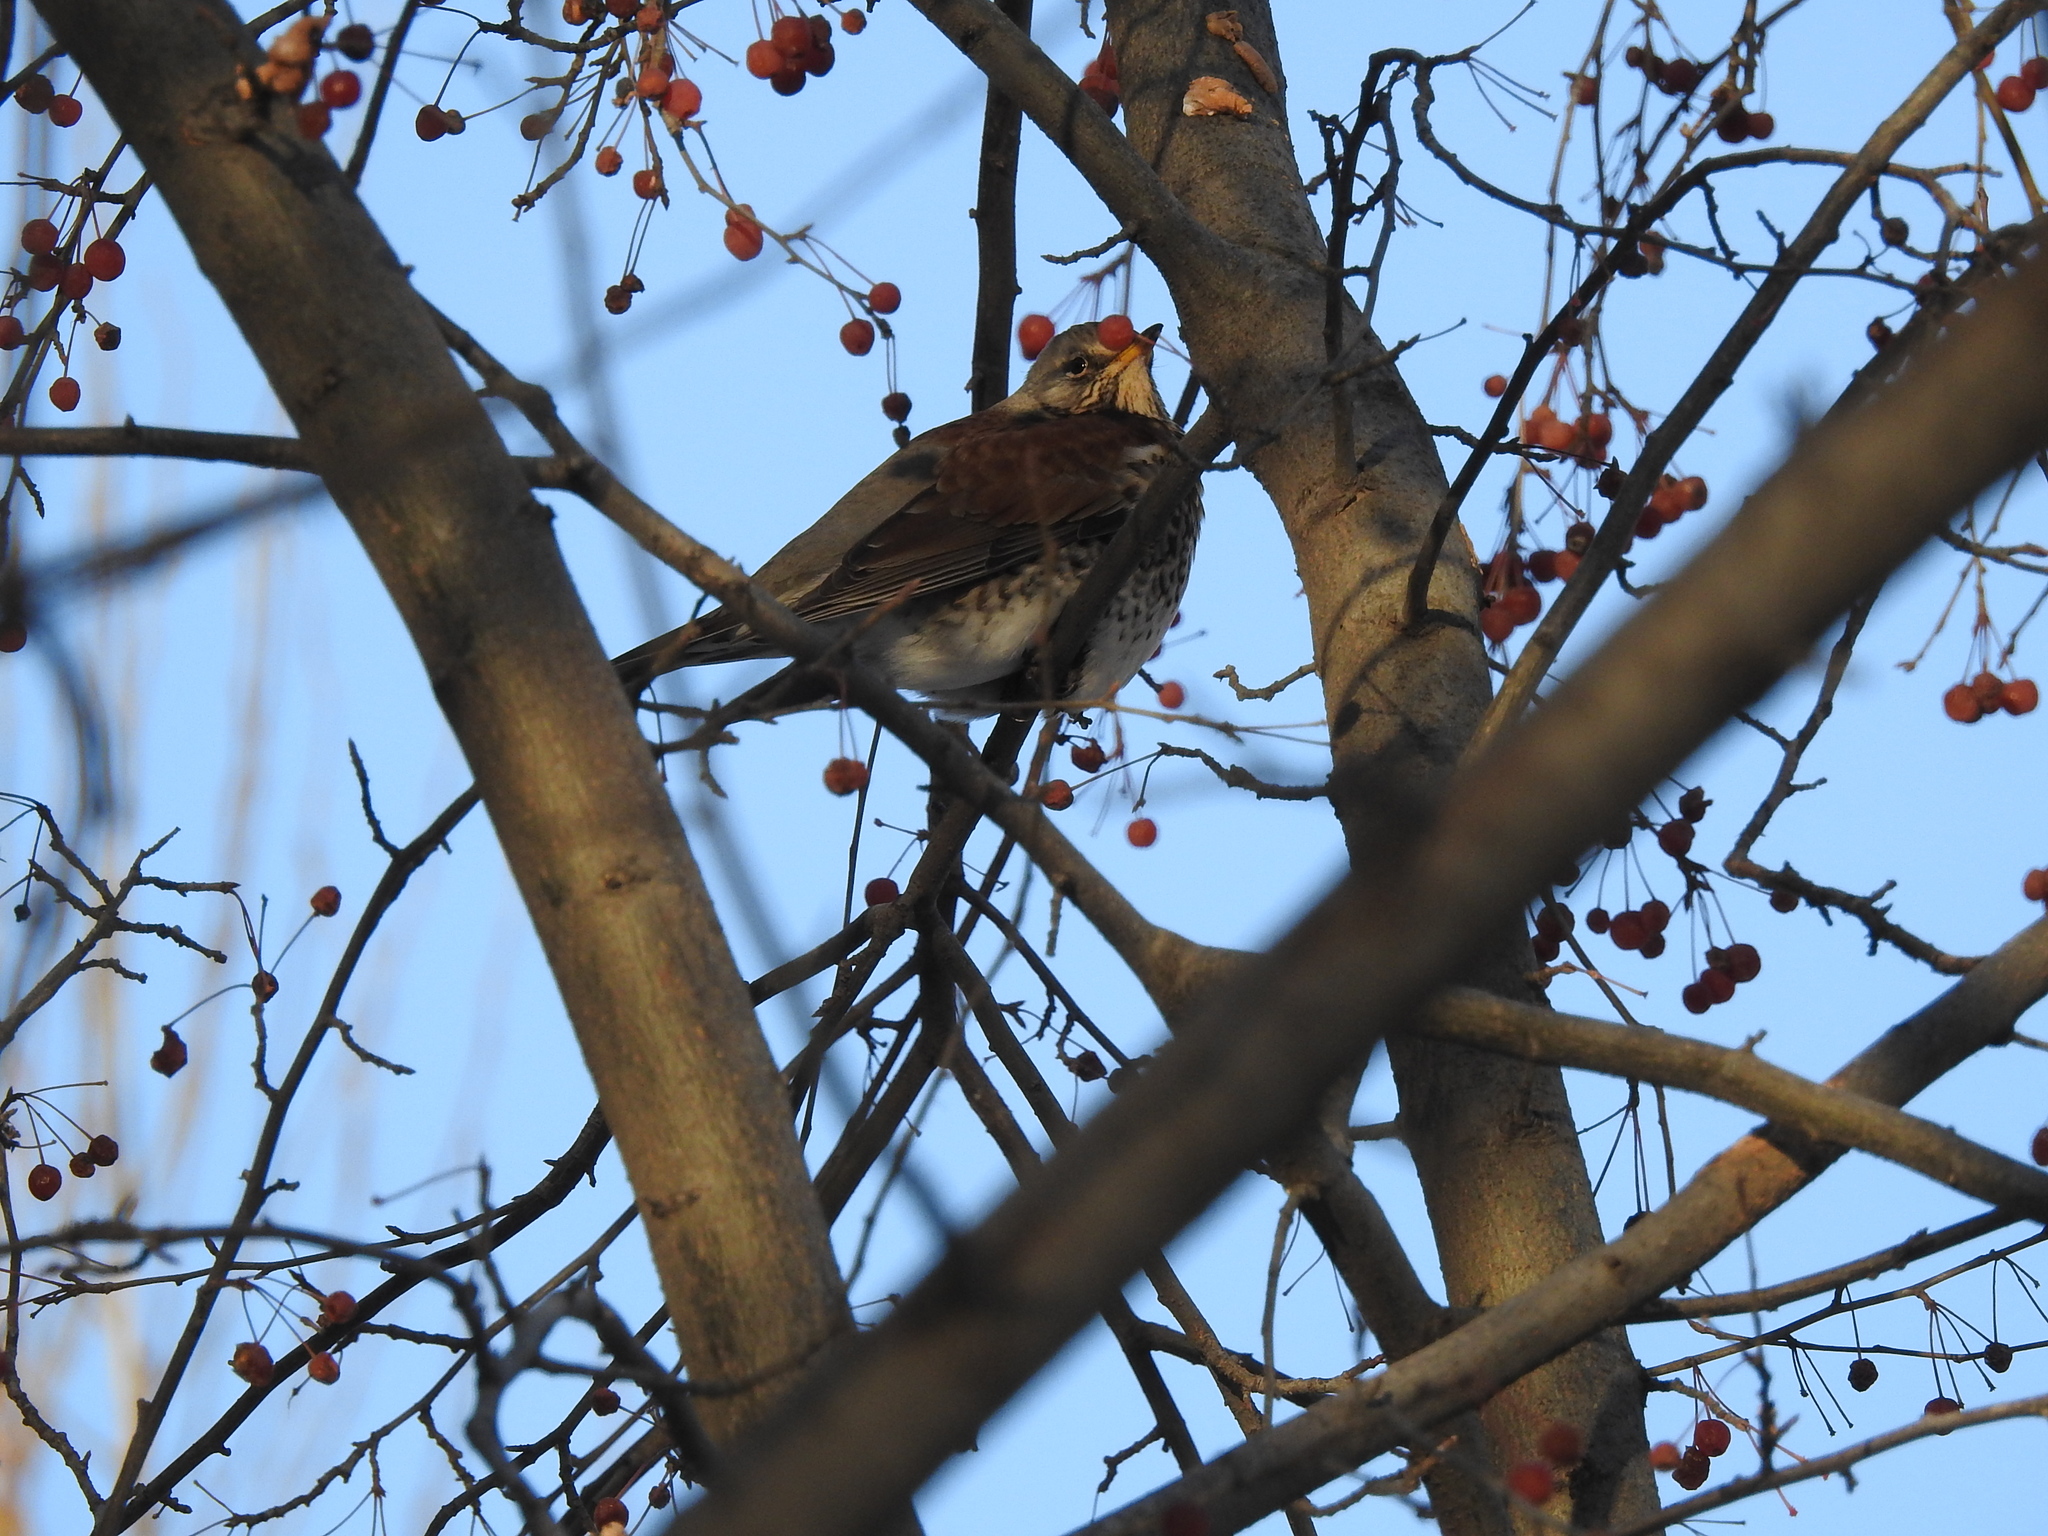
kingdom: Animalia
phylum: Chordata
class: Aves
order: Passeriformes
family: Turdidae
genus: Turdus
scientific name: Turdus pilaris
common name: Fieldfare
